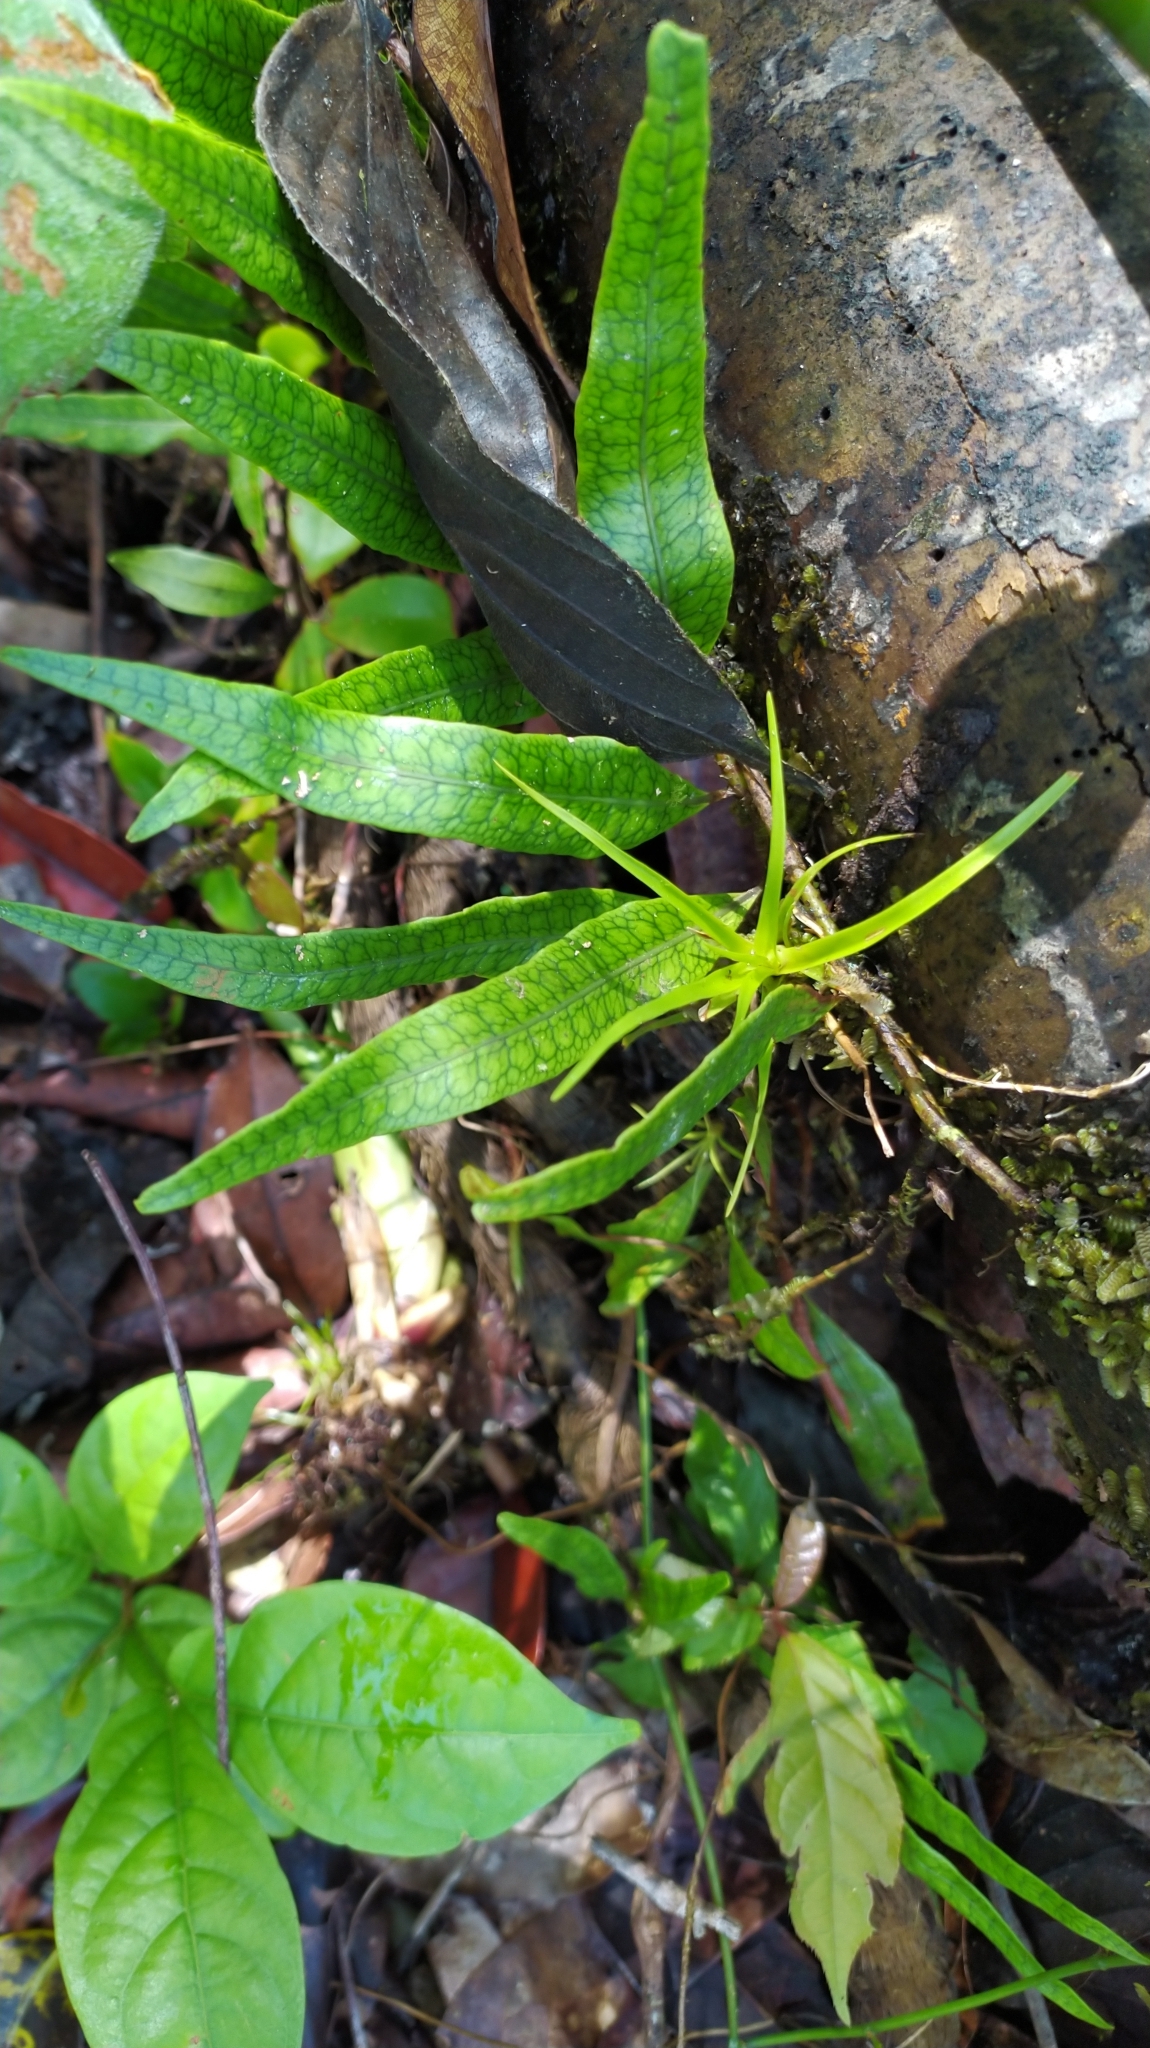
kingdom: Plantae
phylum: Tracheophyta
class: Polypodiopsida
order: Polypodiales
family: Polypodiaceae
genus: Microgramma
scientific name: Microgramma lycopodioides
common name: Bastard catclaw
